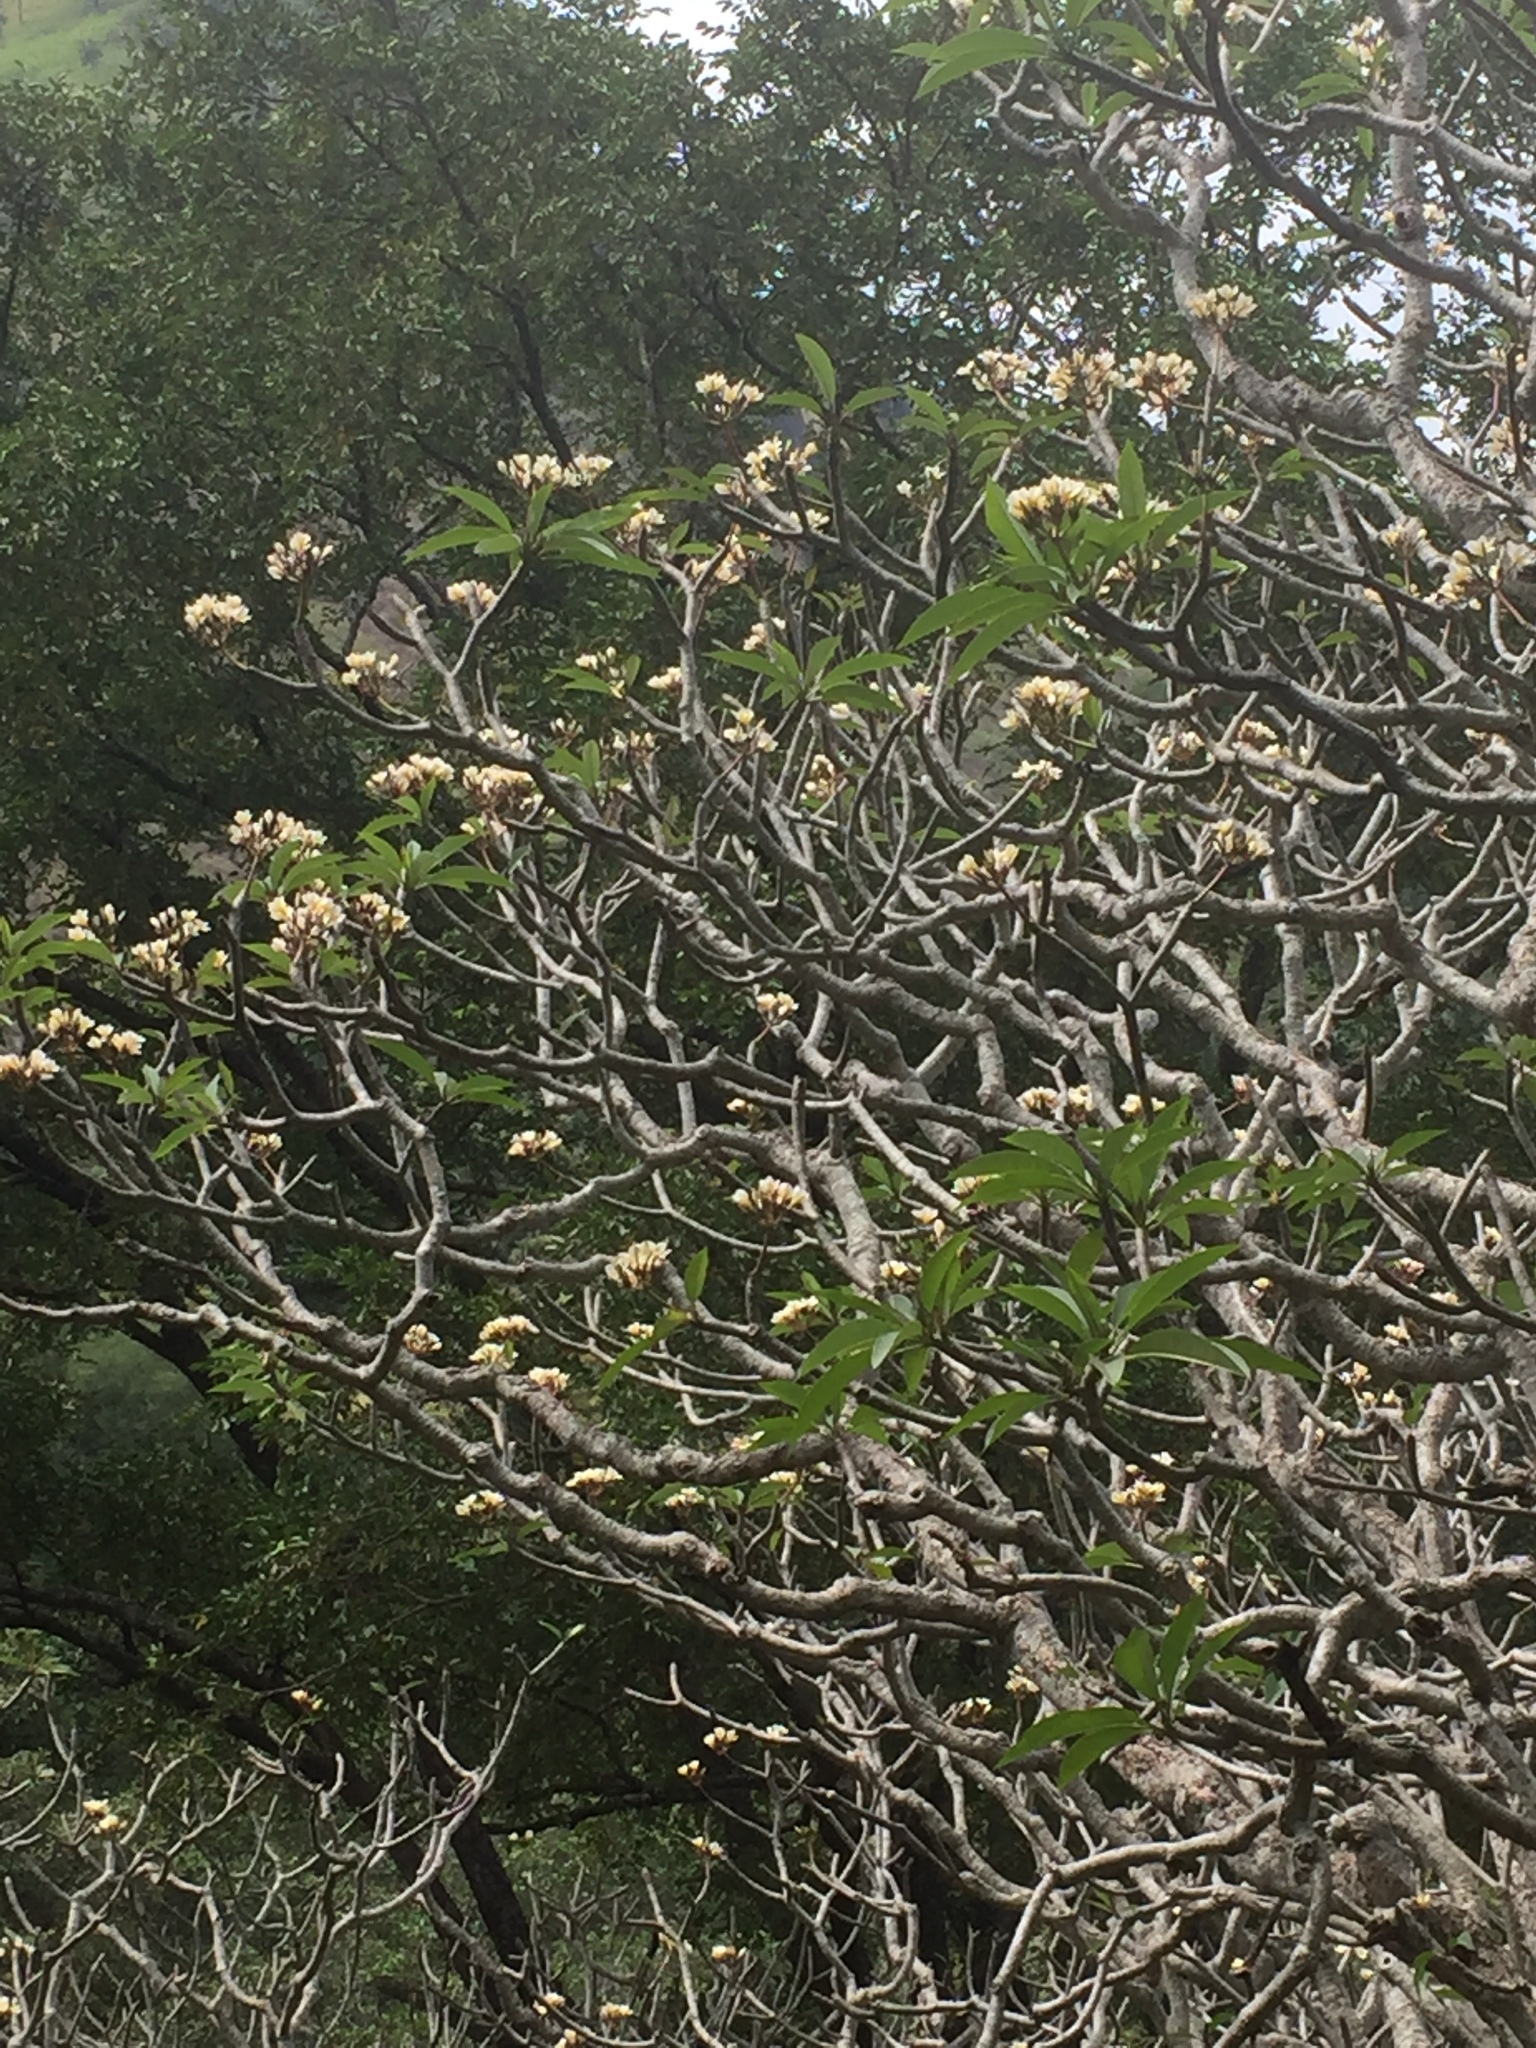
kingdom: Plantae
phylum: Tracheophyta
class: Magnoliopsida
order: Gentianales
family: Apocynaceae
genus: Plumeria
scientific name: Plumeria rubra
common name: Pagoda-tree
